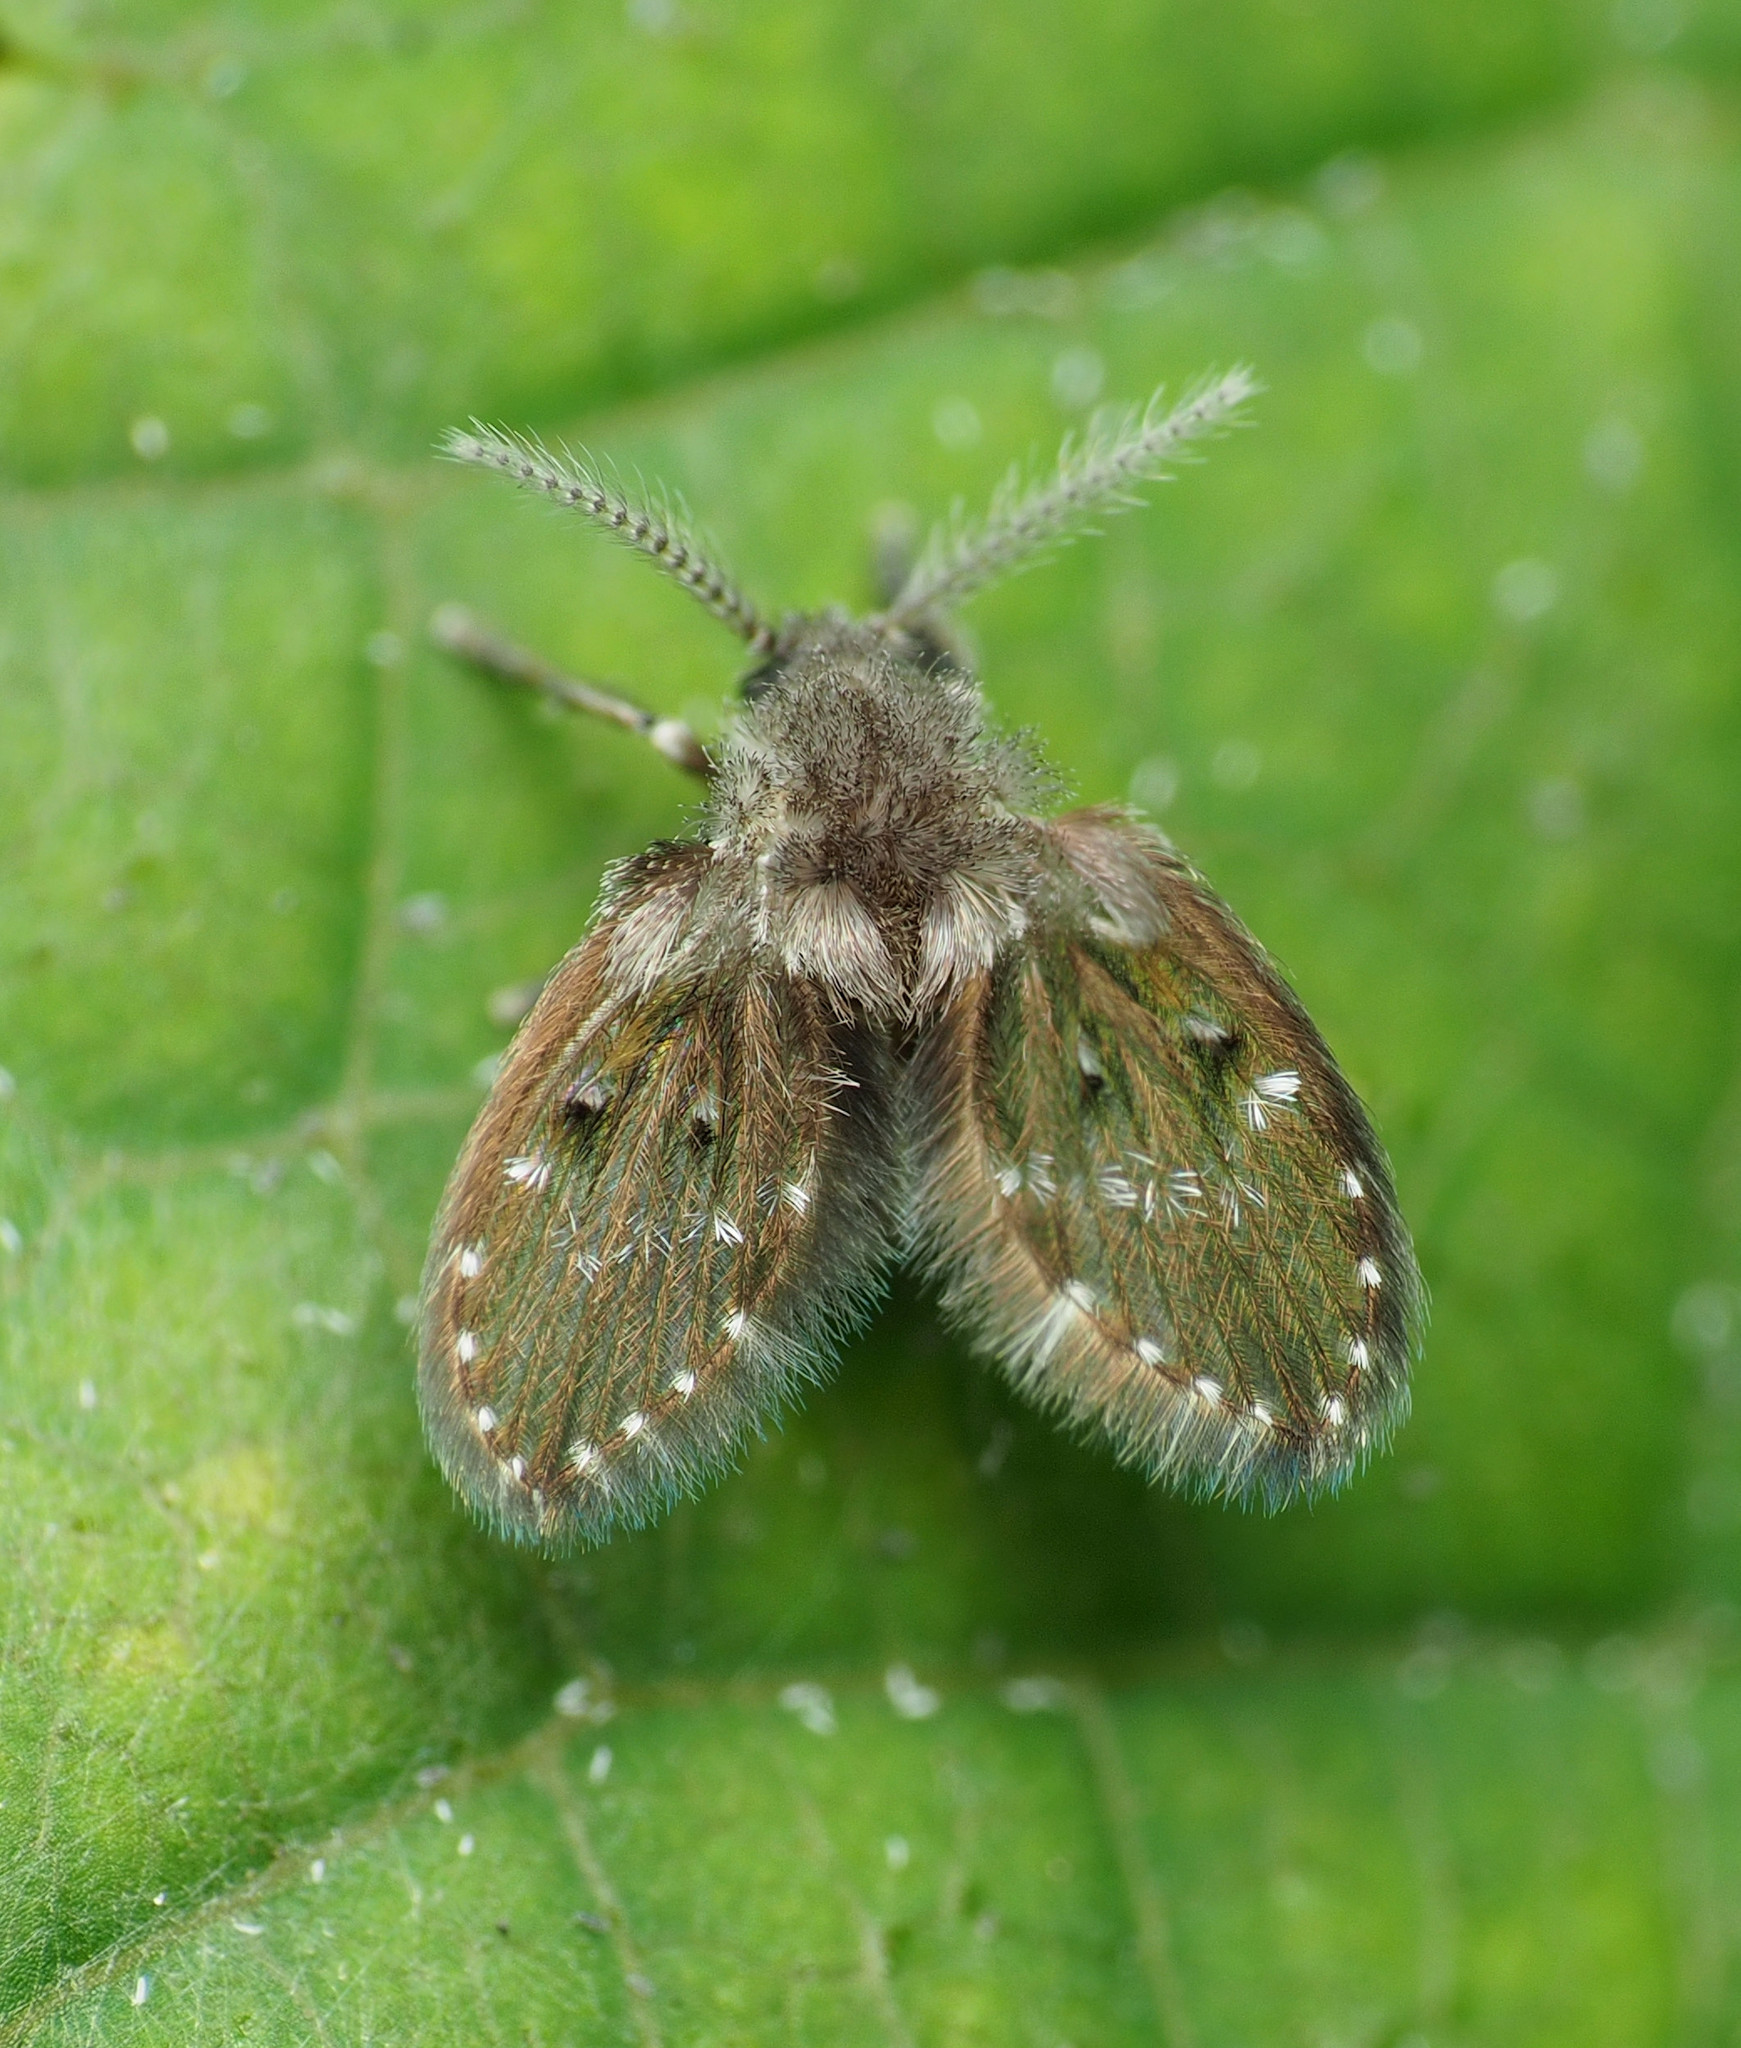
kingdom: Animalia
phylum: Arthropoda
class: Insecta
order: Diptera
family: Psychodidae
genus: Clogmia
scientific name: Clogmia albipunctatus
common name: White-spotted moth fly
